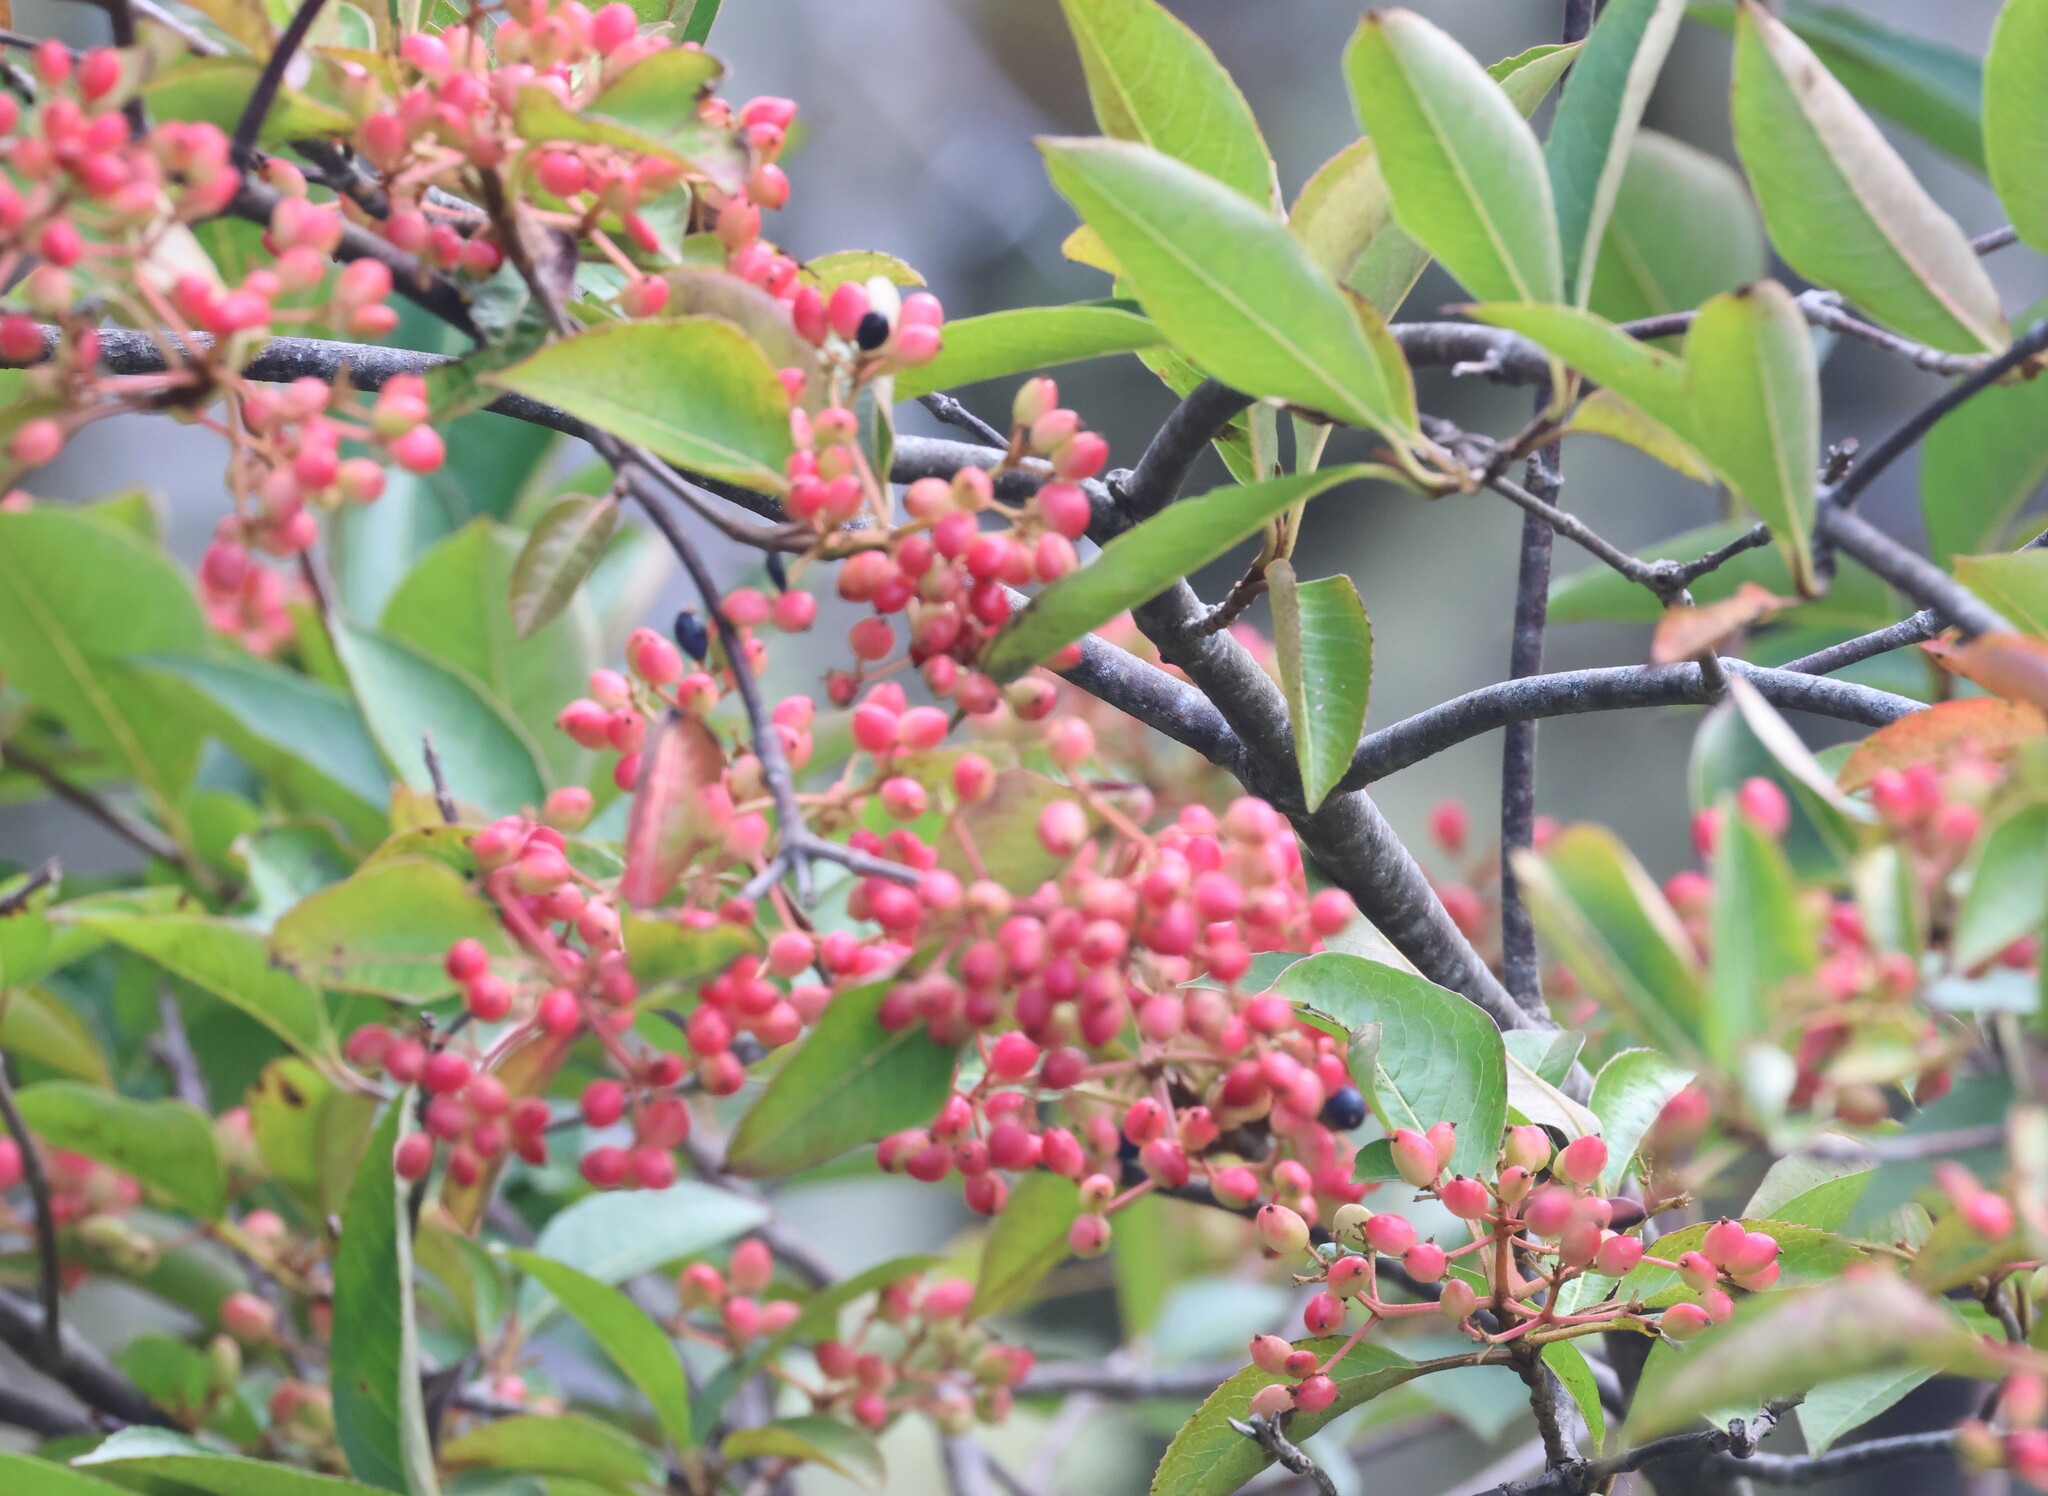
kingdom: Plantae
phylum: Tracheophyta
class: Magnoliopsida
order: Dipsacales
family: Viburnaceae
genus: Viburnum
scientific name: Viburnum cassinoides
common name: Swamp haw
